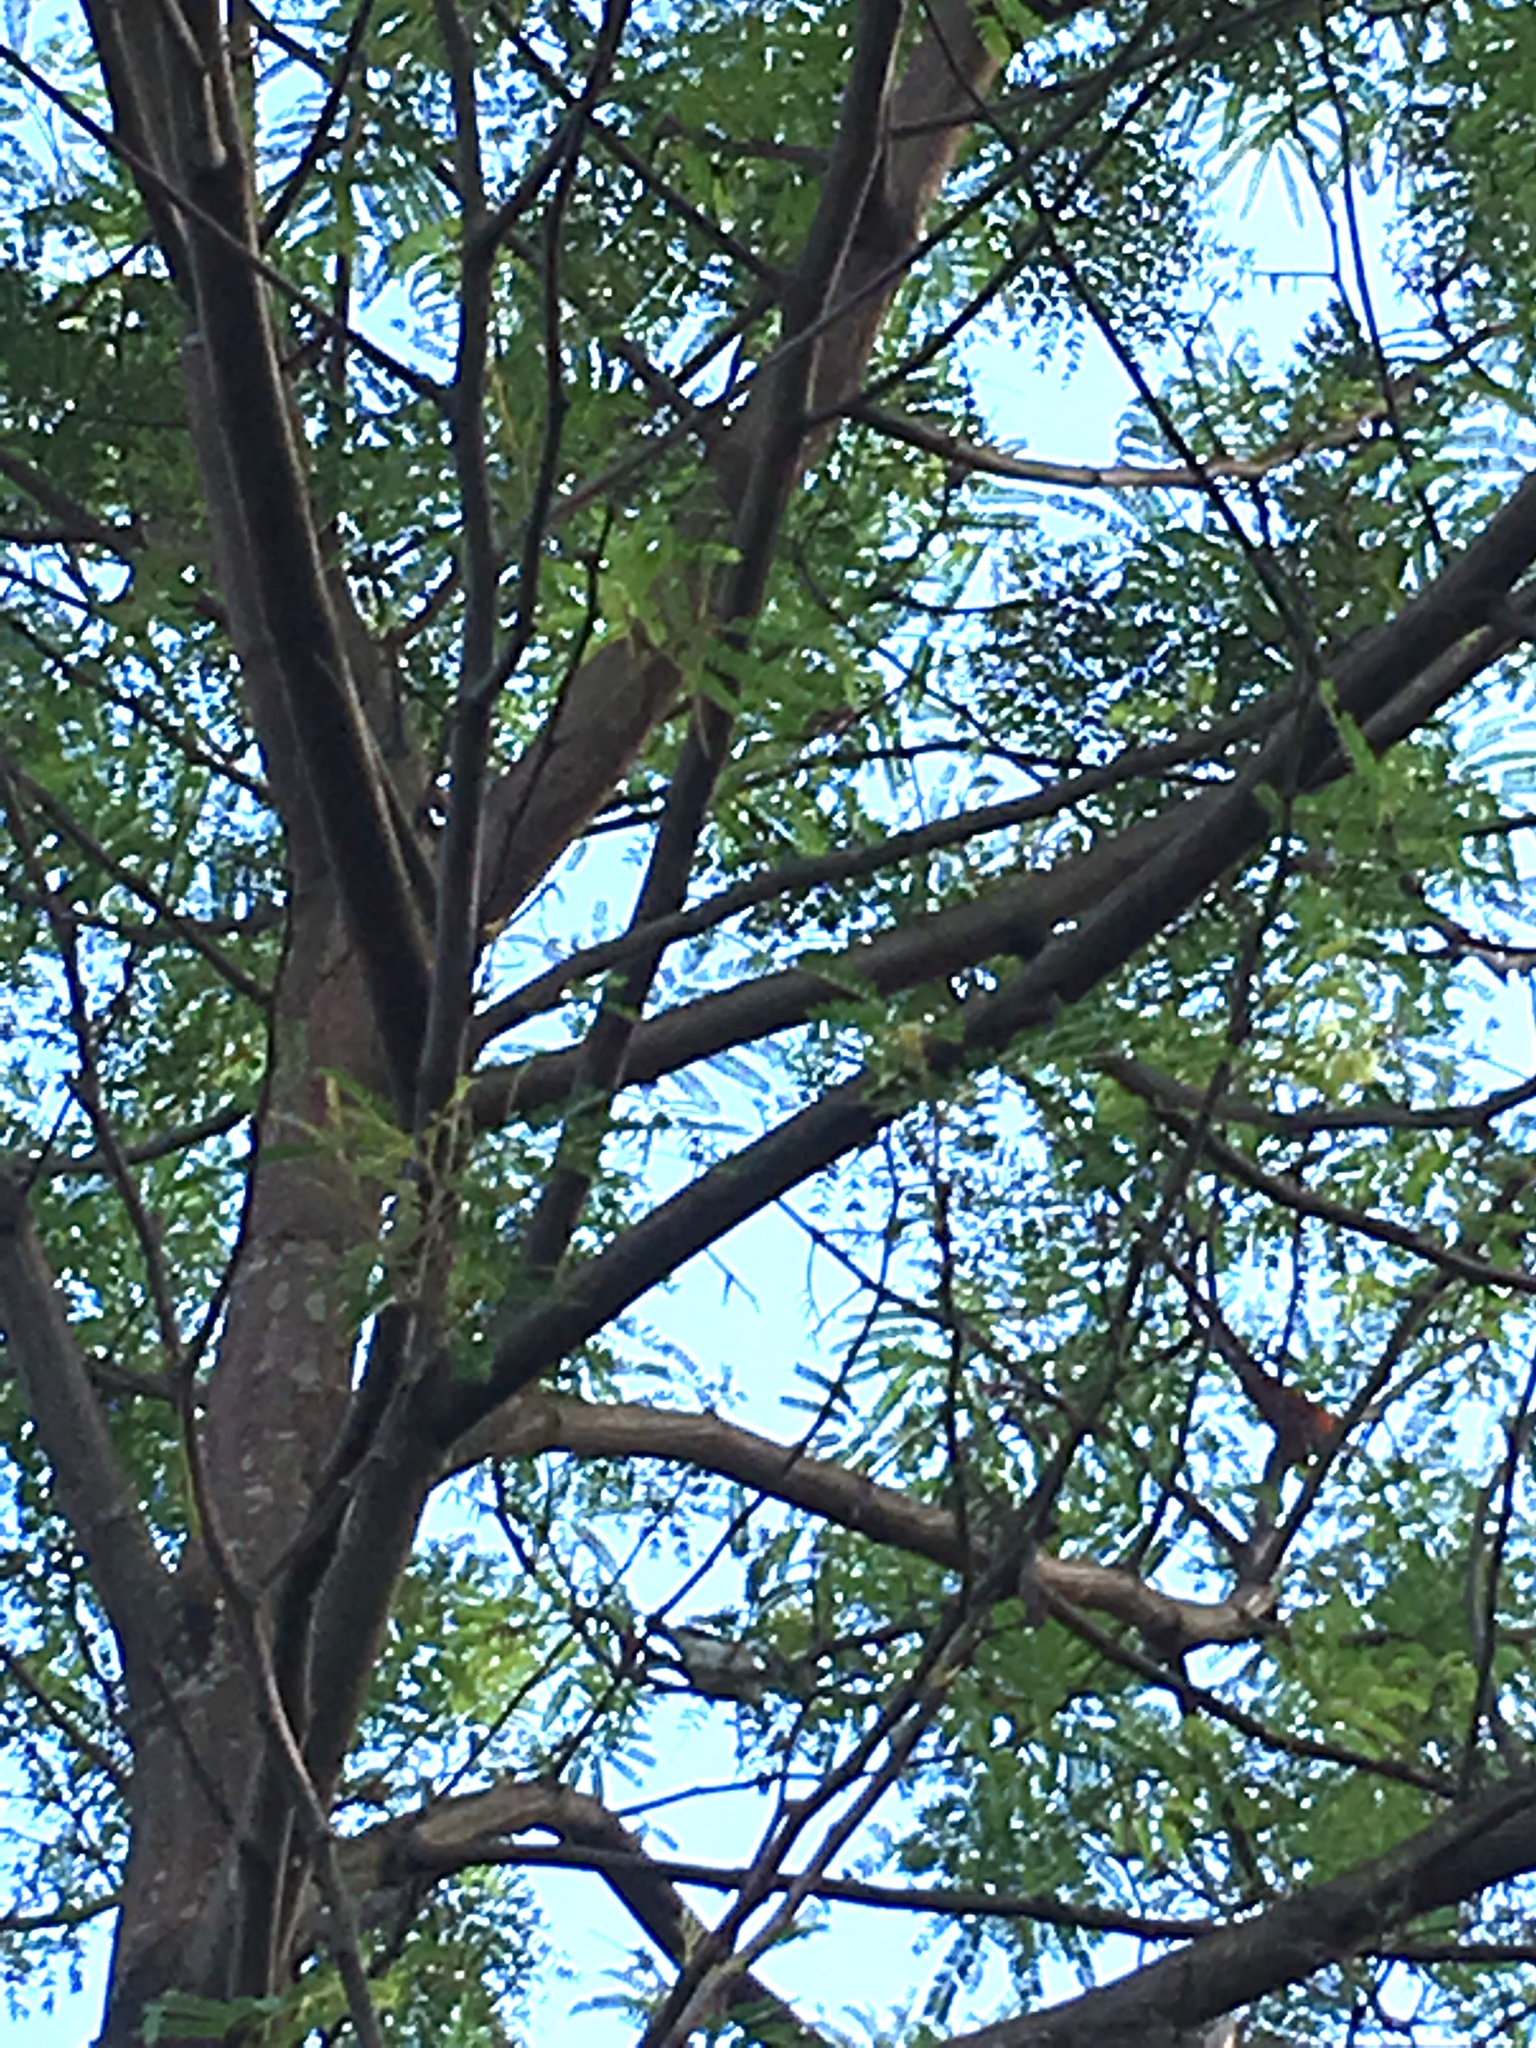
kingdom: Animalia
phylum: Chordata
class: Aves
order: Passeriformes
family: Zosteropidae
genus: Zosterops
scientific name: Zosterops lateralis
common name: Silvereye
